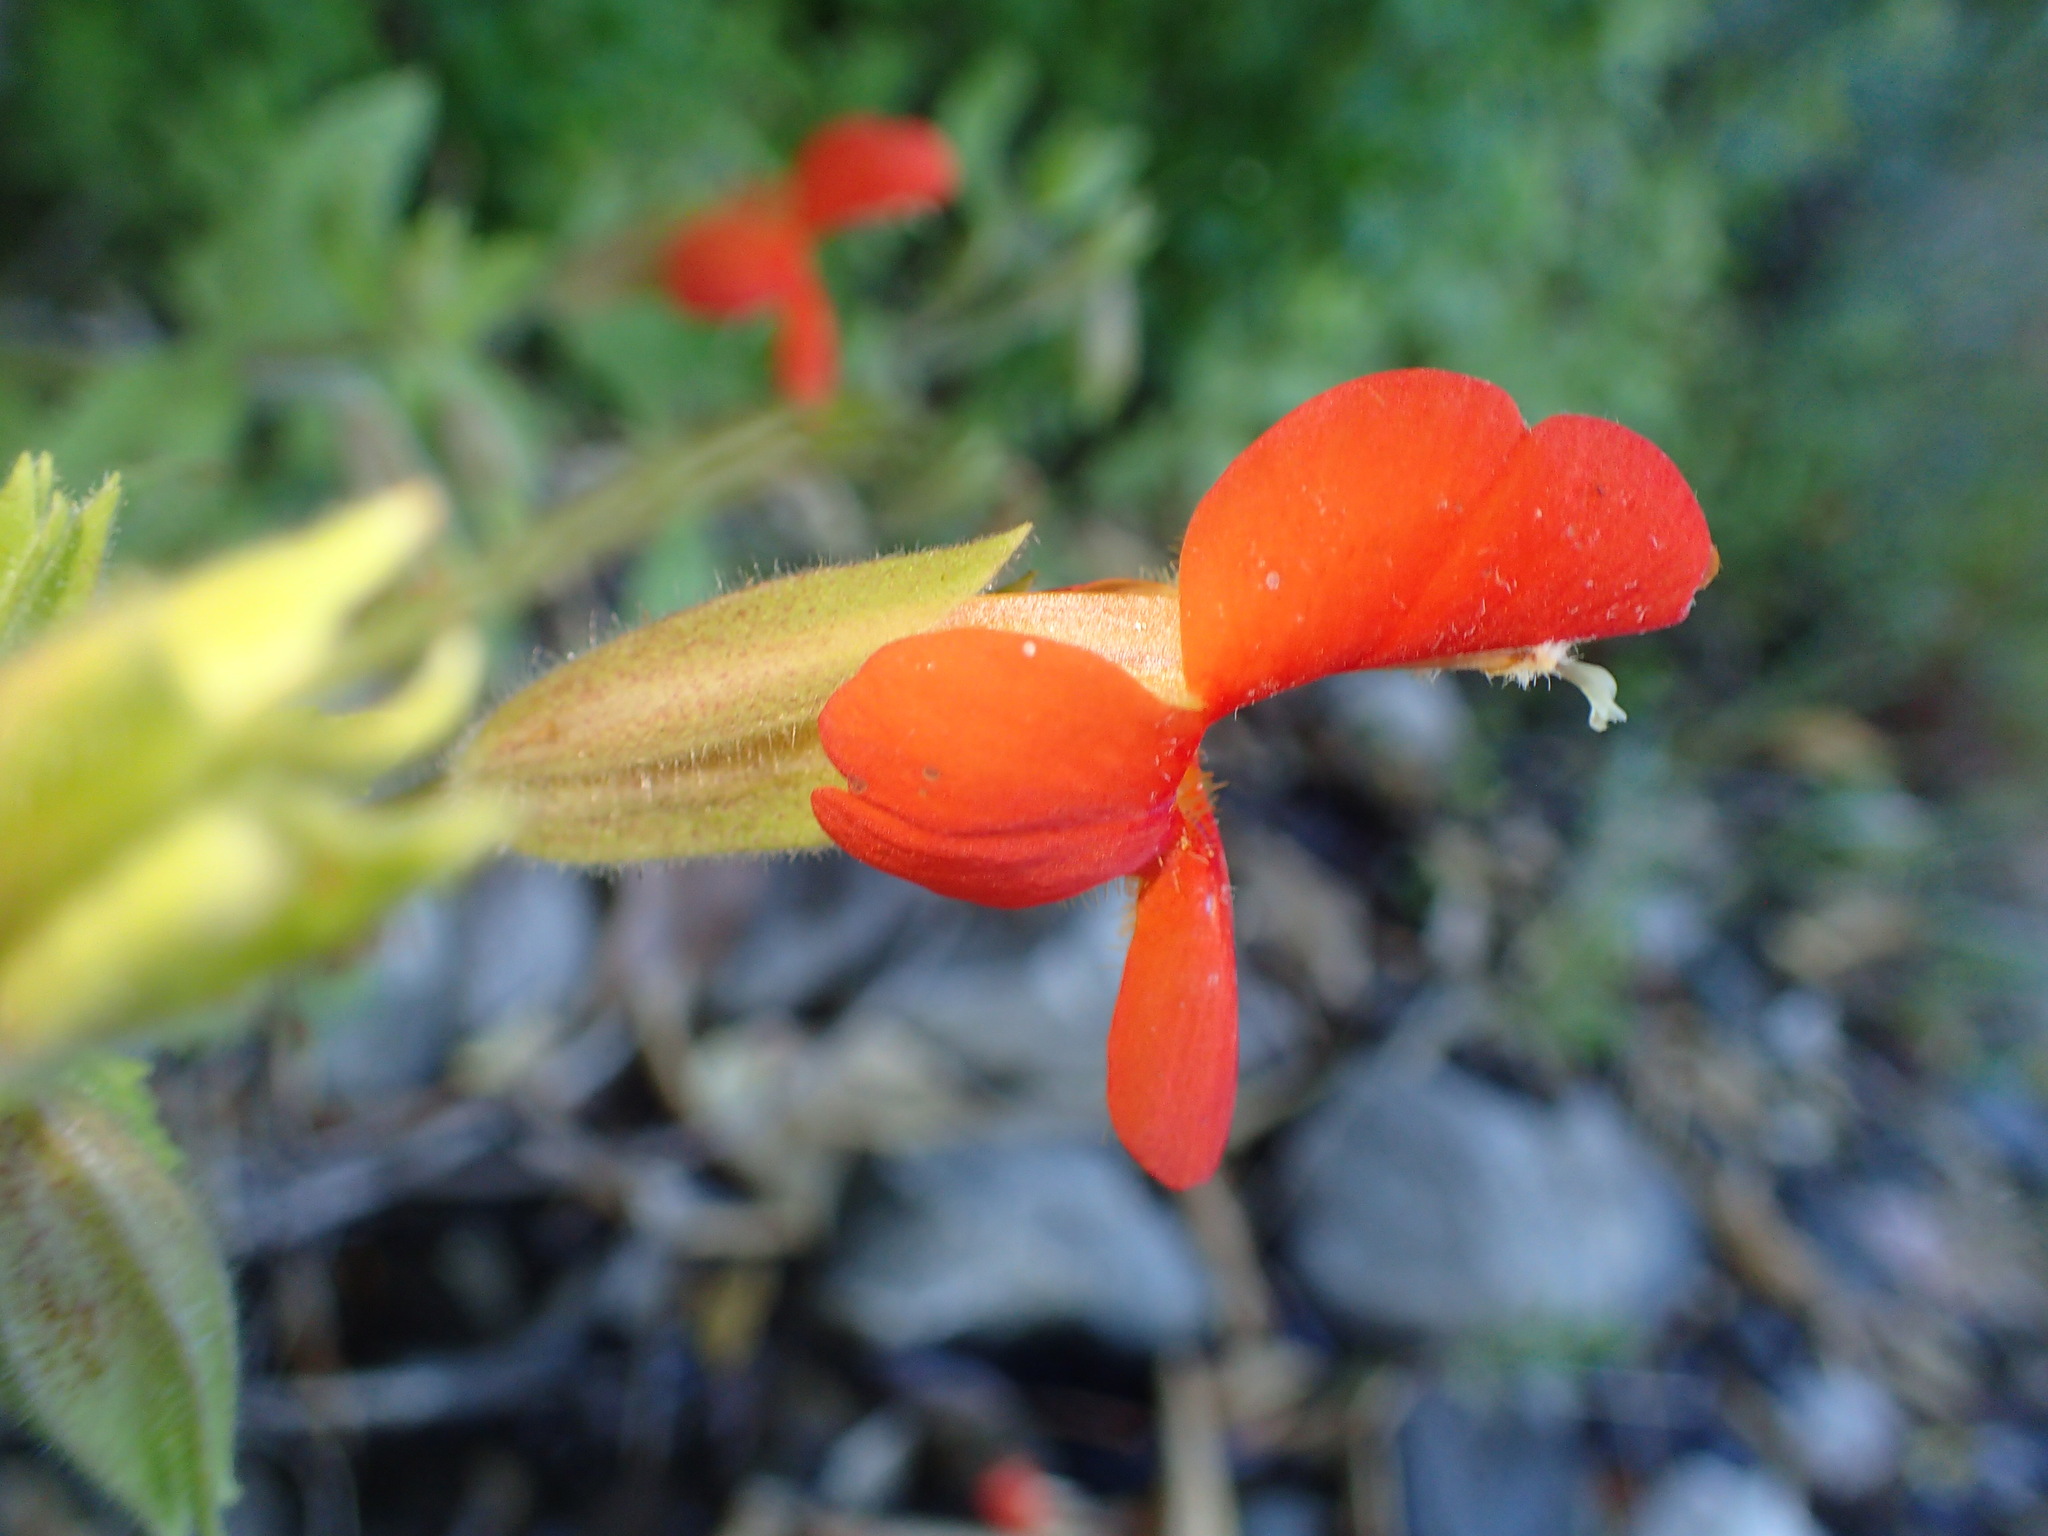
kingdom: Plantae
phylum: Tracheophyta
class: Magnoliopsida
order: Lamiales
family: Phrymaceae
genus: Erythranthe
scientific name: Erythranthe cardinalis
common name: Scarlet monkey-flower
